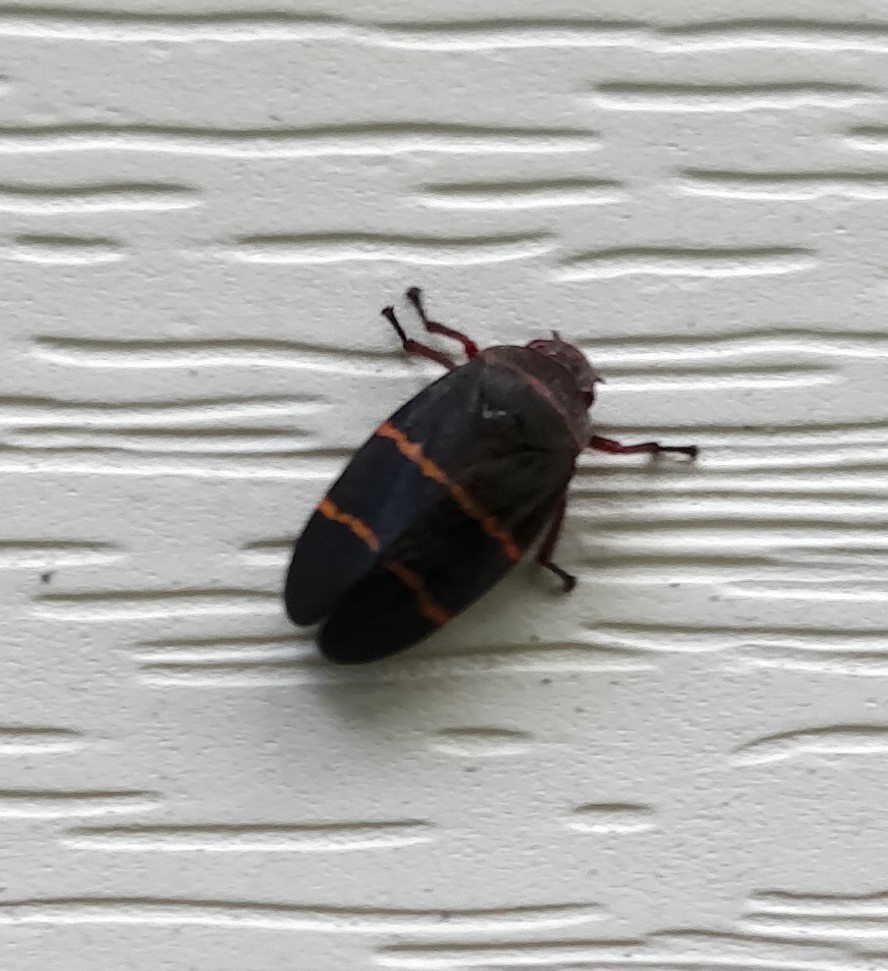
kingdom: Animalia
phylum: Arthropoda
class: Insecta
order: Hemiptera
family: Cercopidae
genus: Prosapia
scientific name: Prosapia bicincta
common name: Twolined spittlebug
